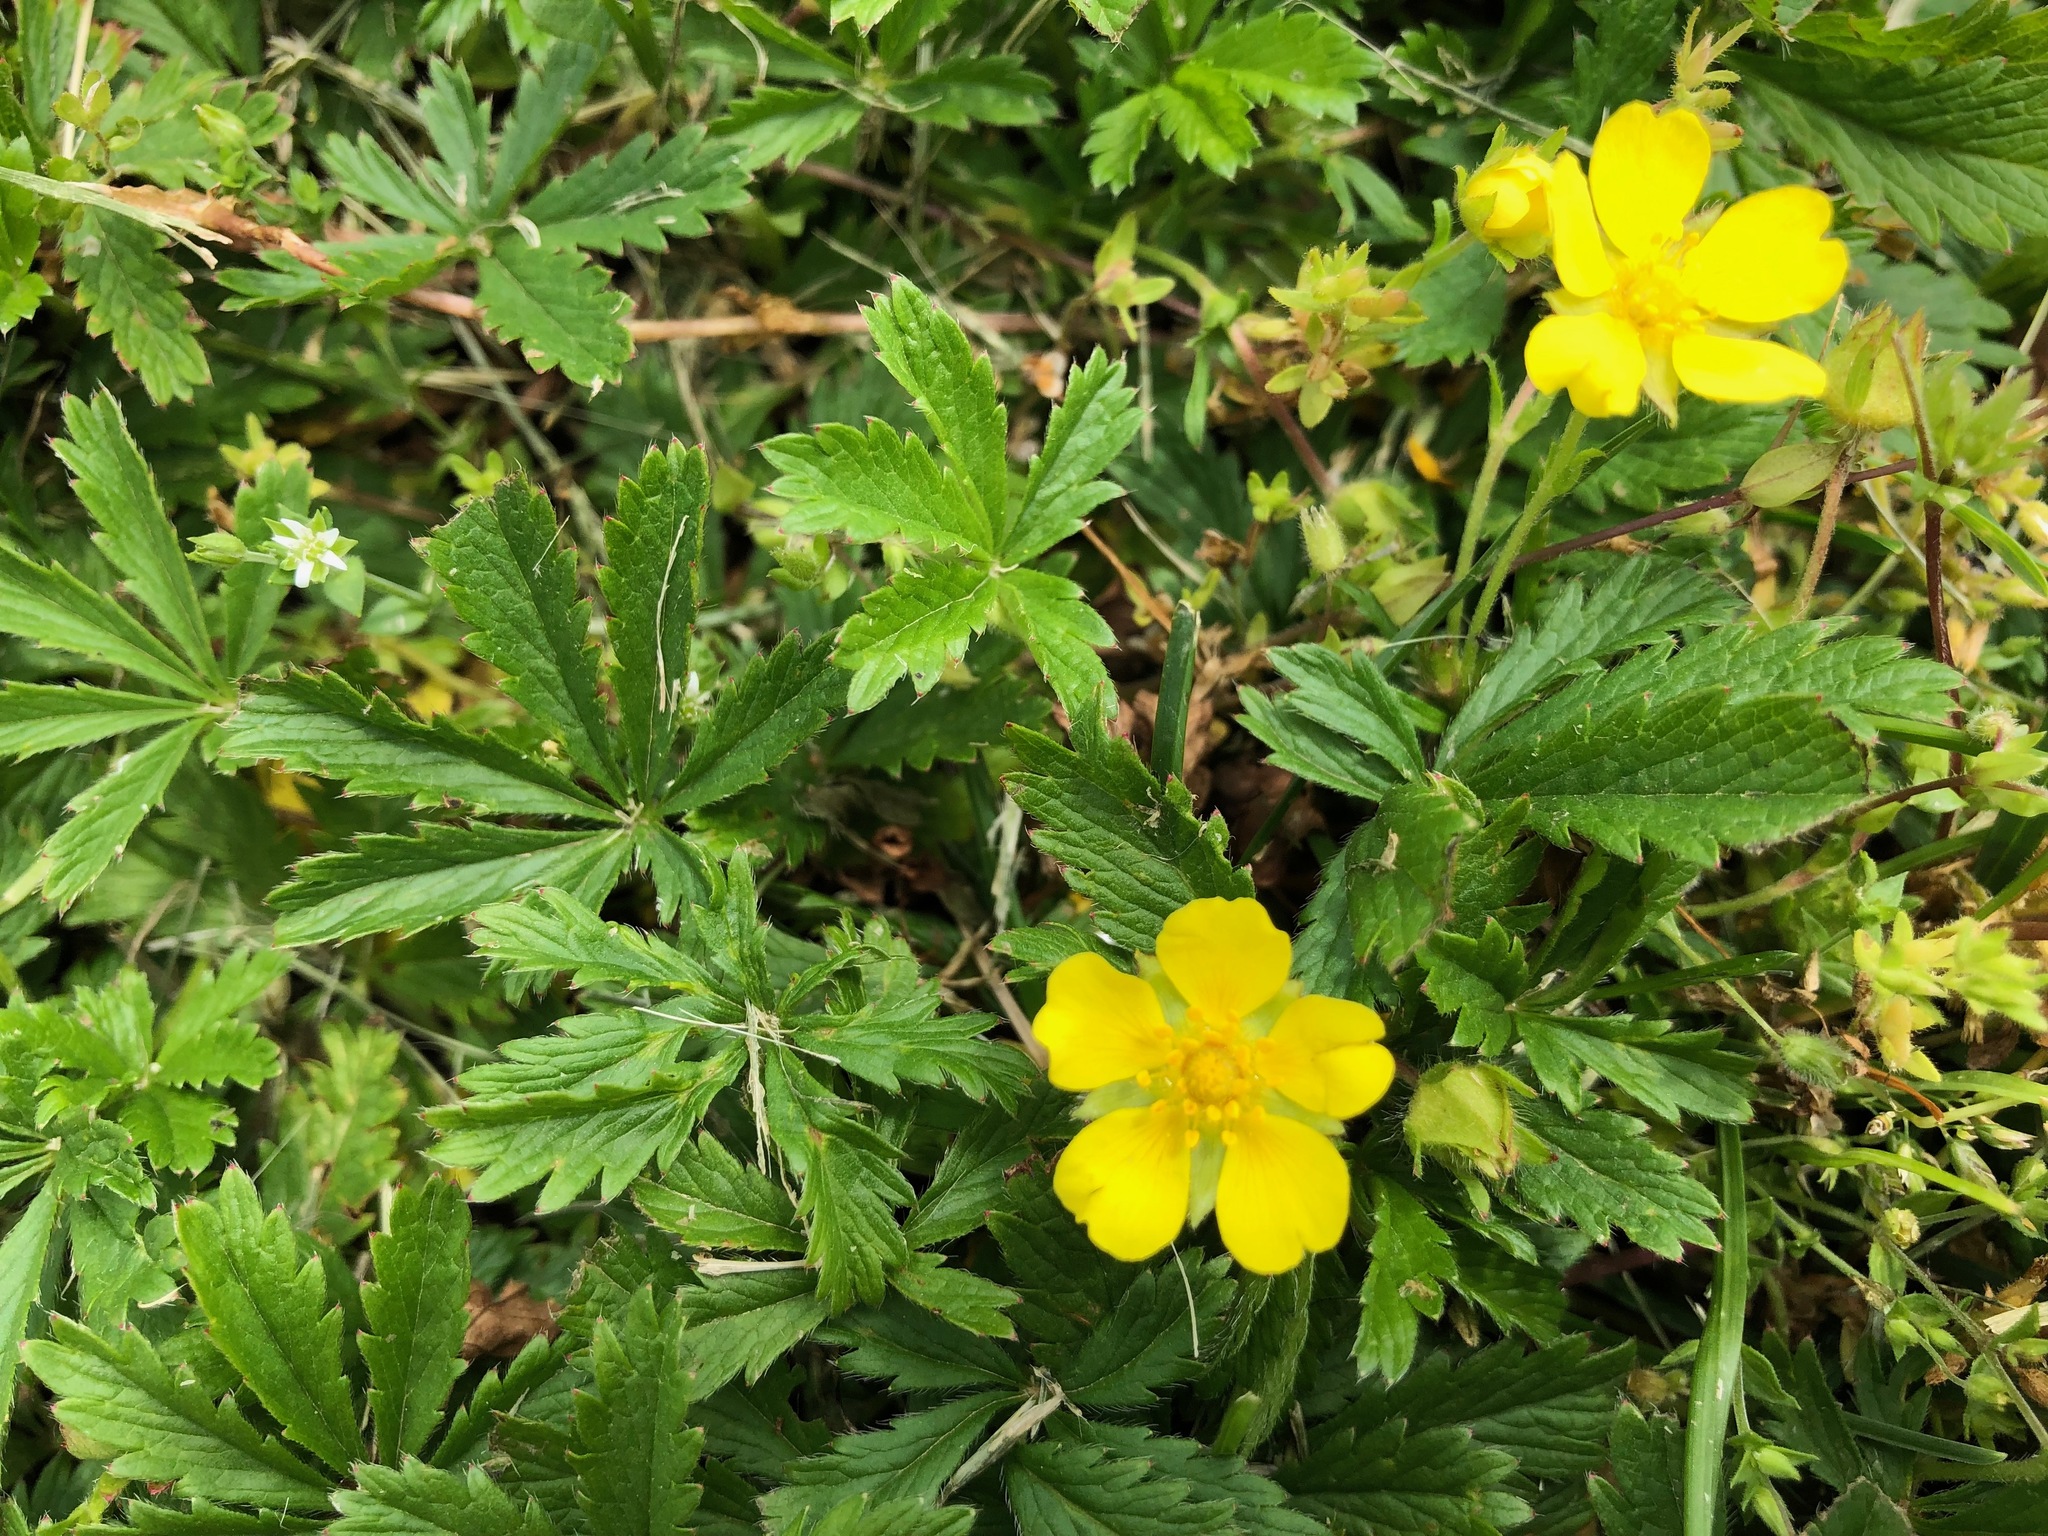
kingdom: Plantae
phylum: Tracheophyta
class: Magnoliopsida
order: Rosales
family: Rosaceae
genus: Potentilla
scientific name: Potentilla reptans
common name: Creeping cinquefoil
